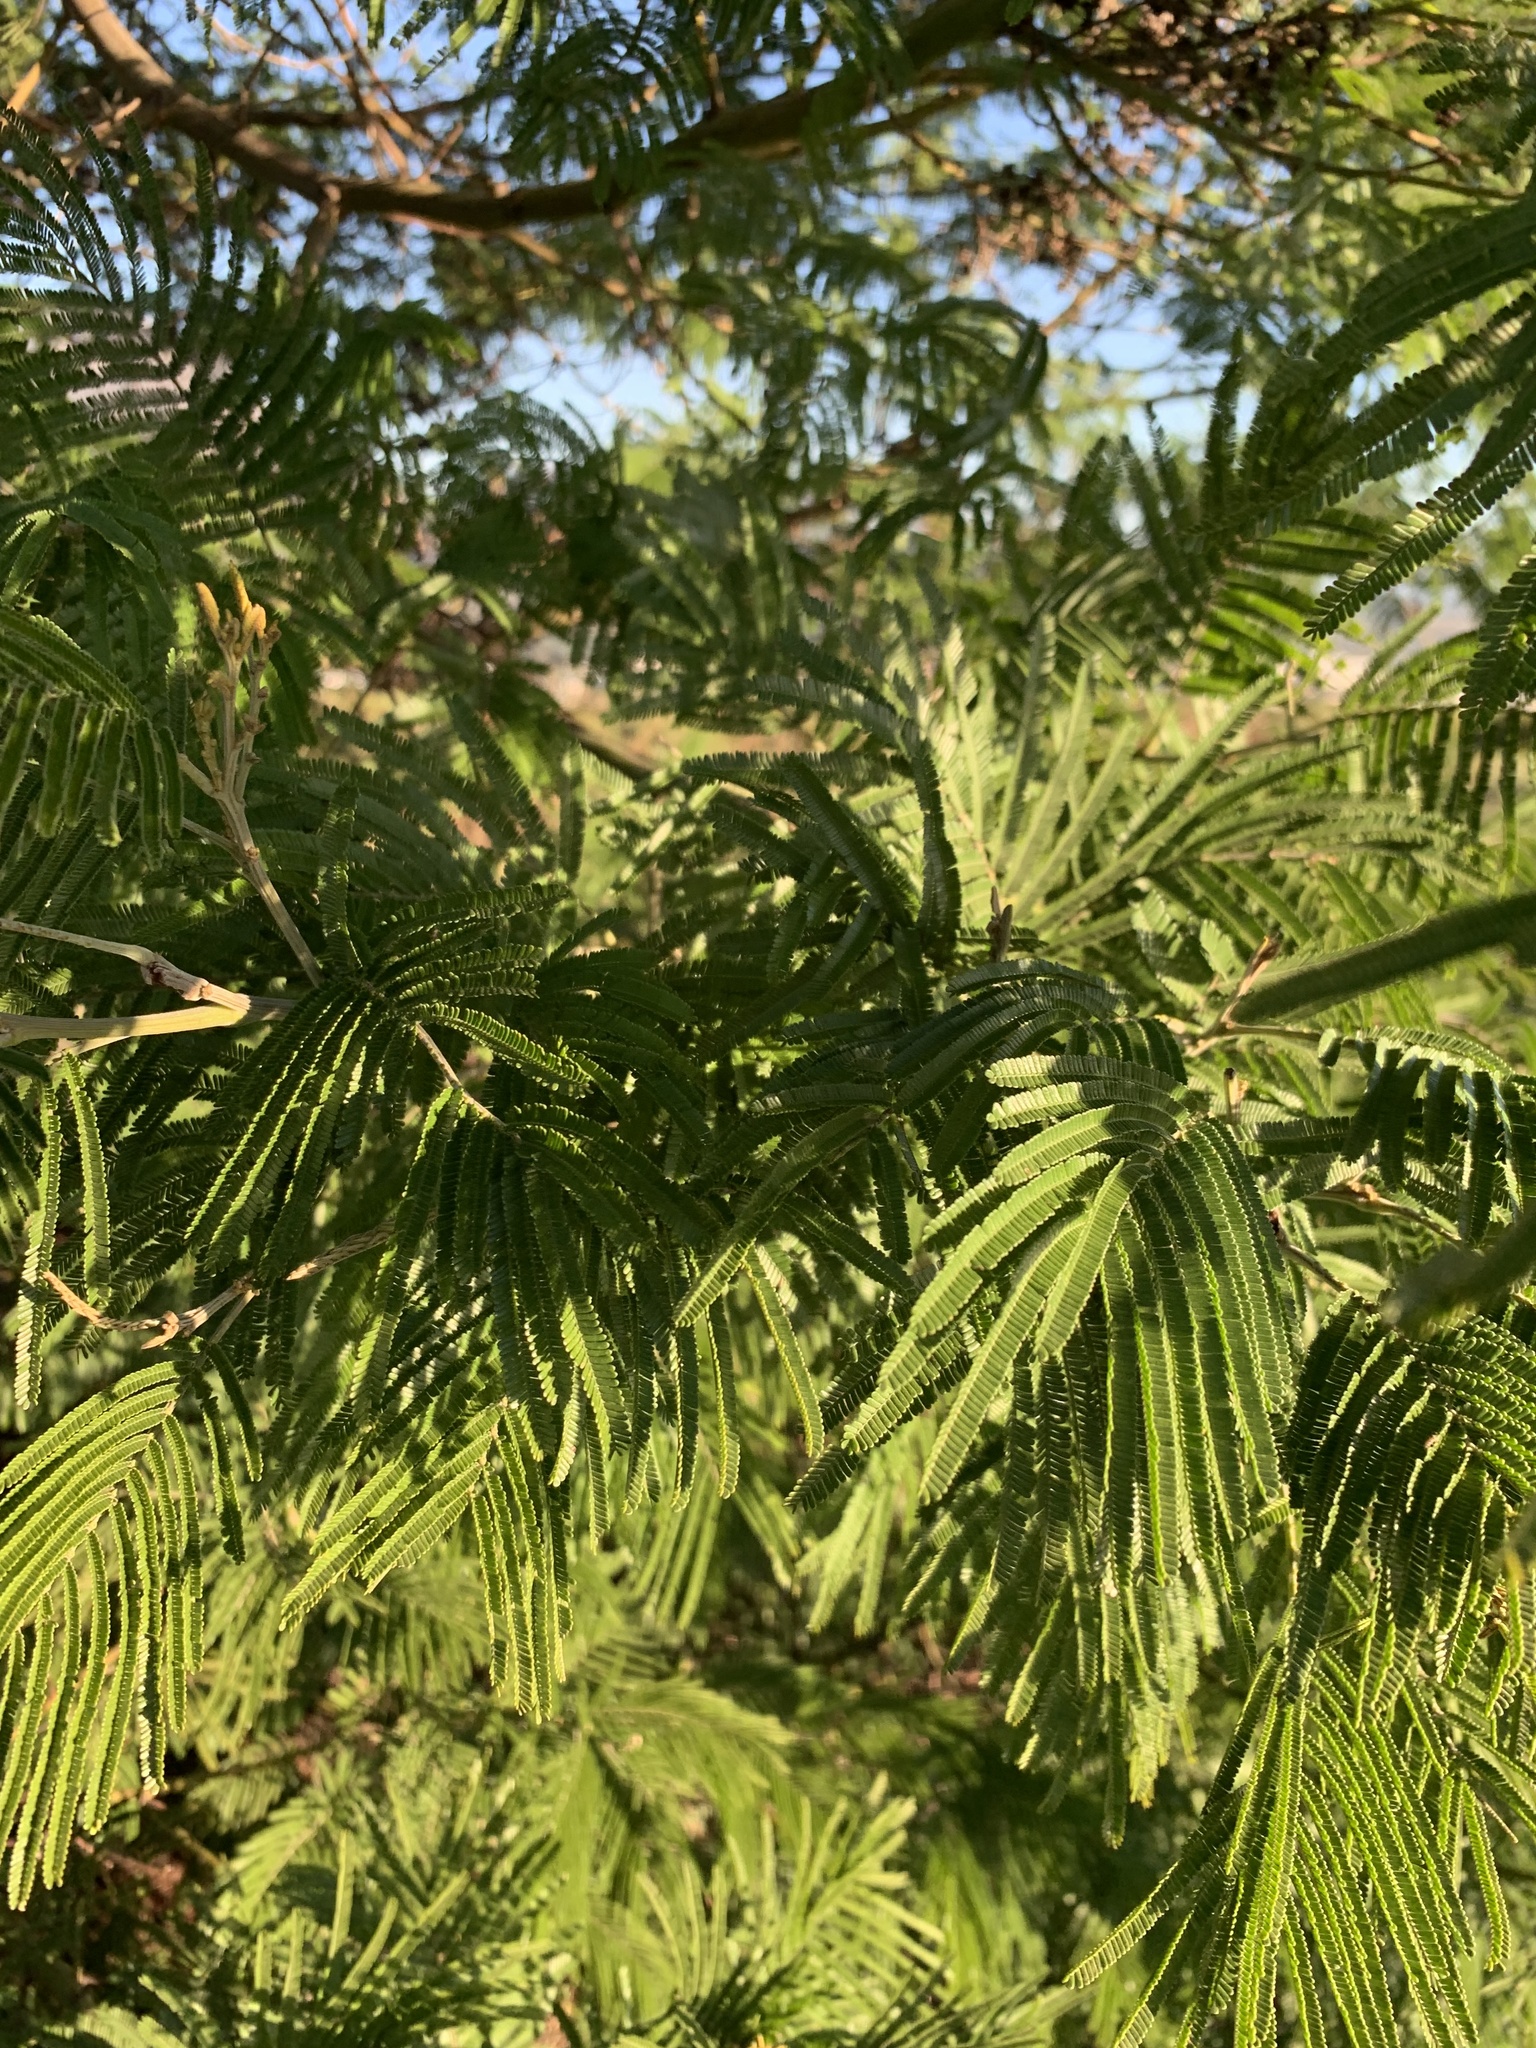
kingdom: Plantae
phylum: Tracheophyta
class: Magnoliopsida
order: Fabales
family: Fabaceae
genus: Acacia
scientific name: Acacia mearnsii
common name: Black wattle
